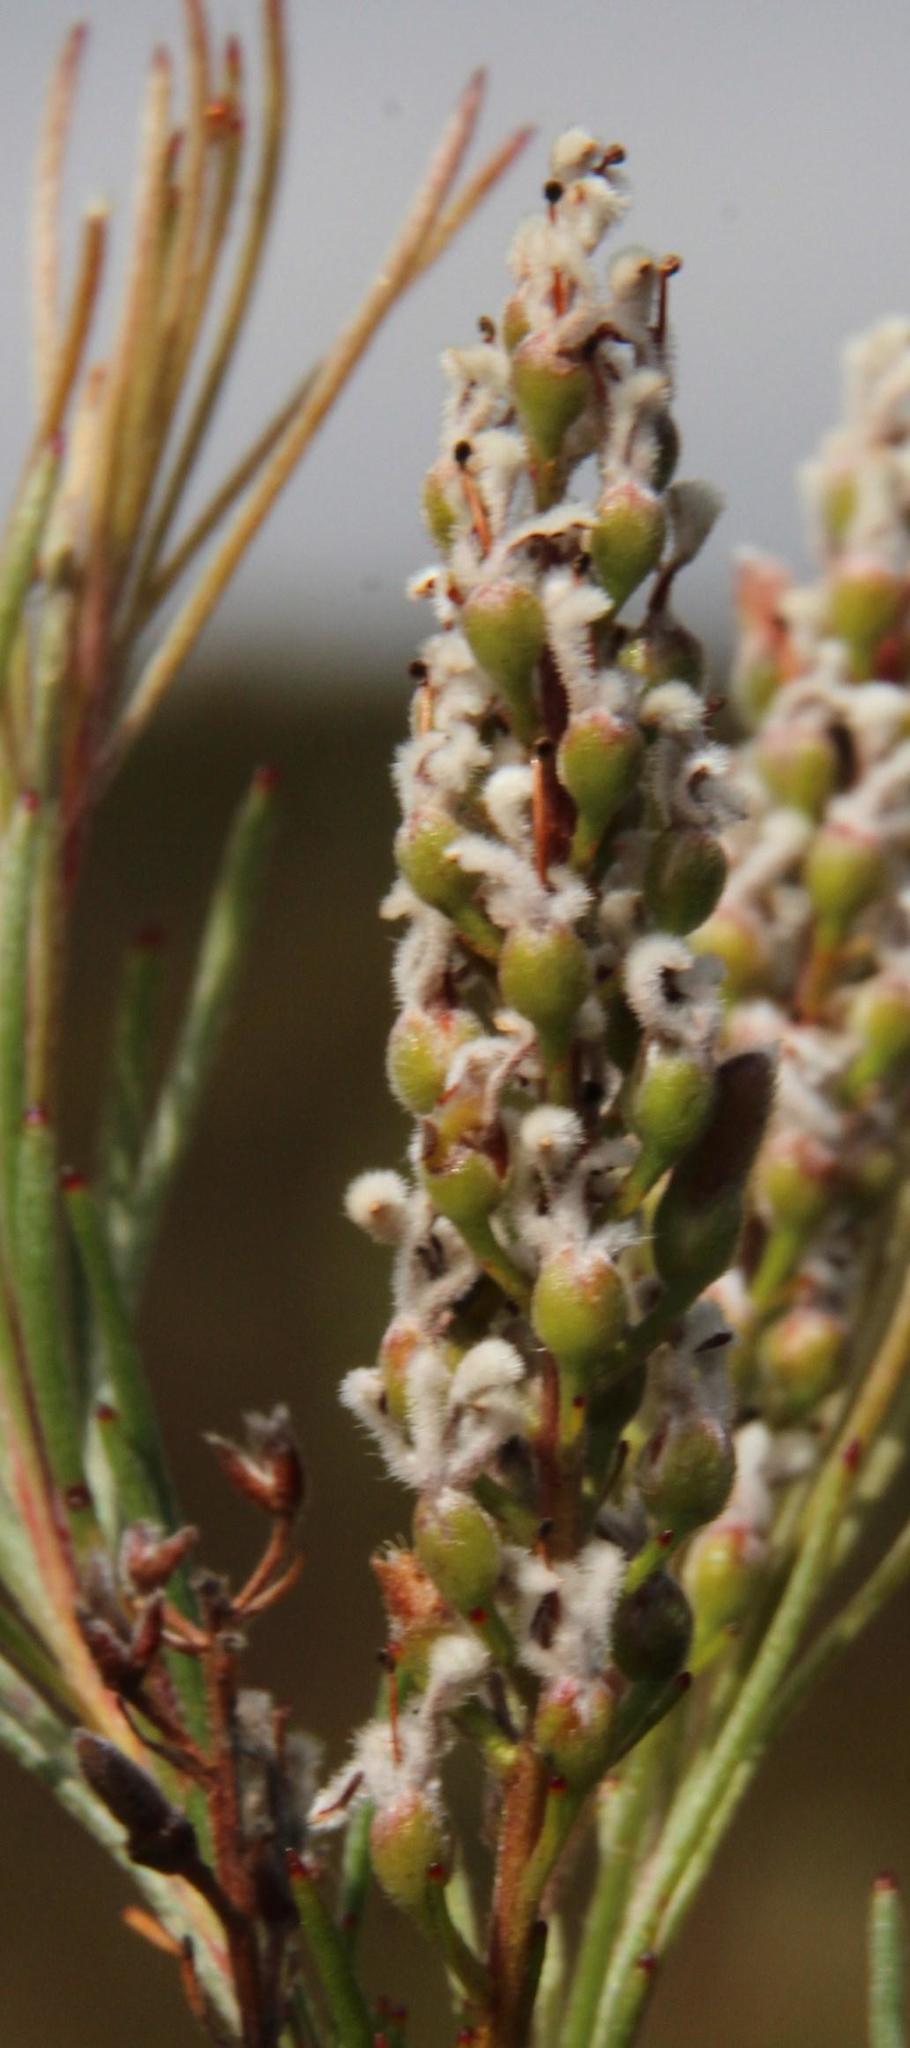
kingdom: Plantae
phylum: Tracheophyta
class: Magnoliopsida
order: Proteales
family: Proteaceae
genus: Spatalla
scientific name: Spatalla racemosa
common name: Lax-stalked spoon
